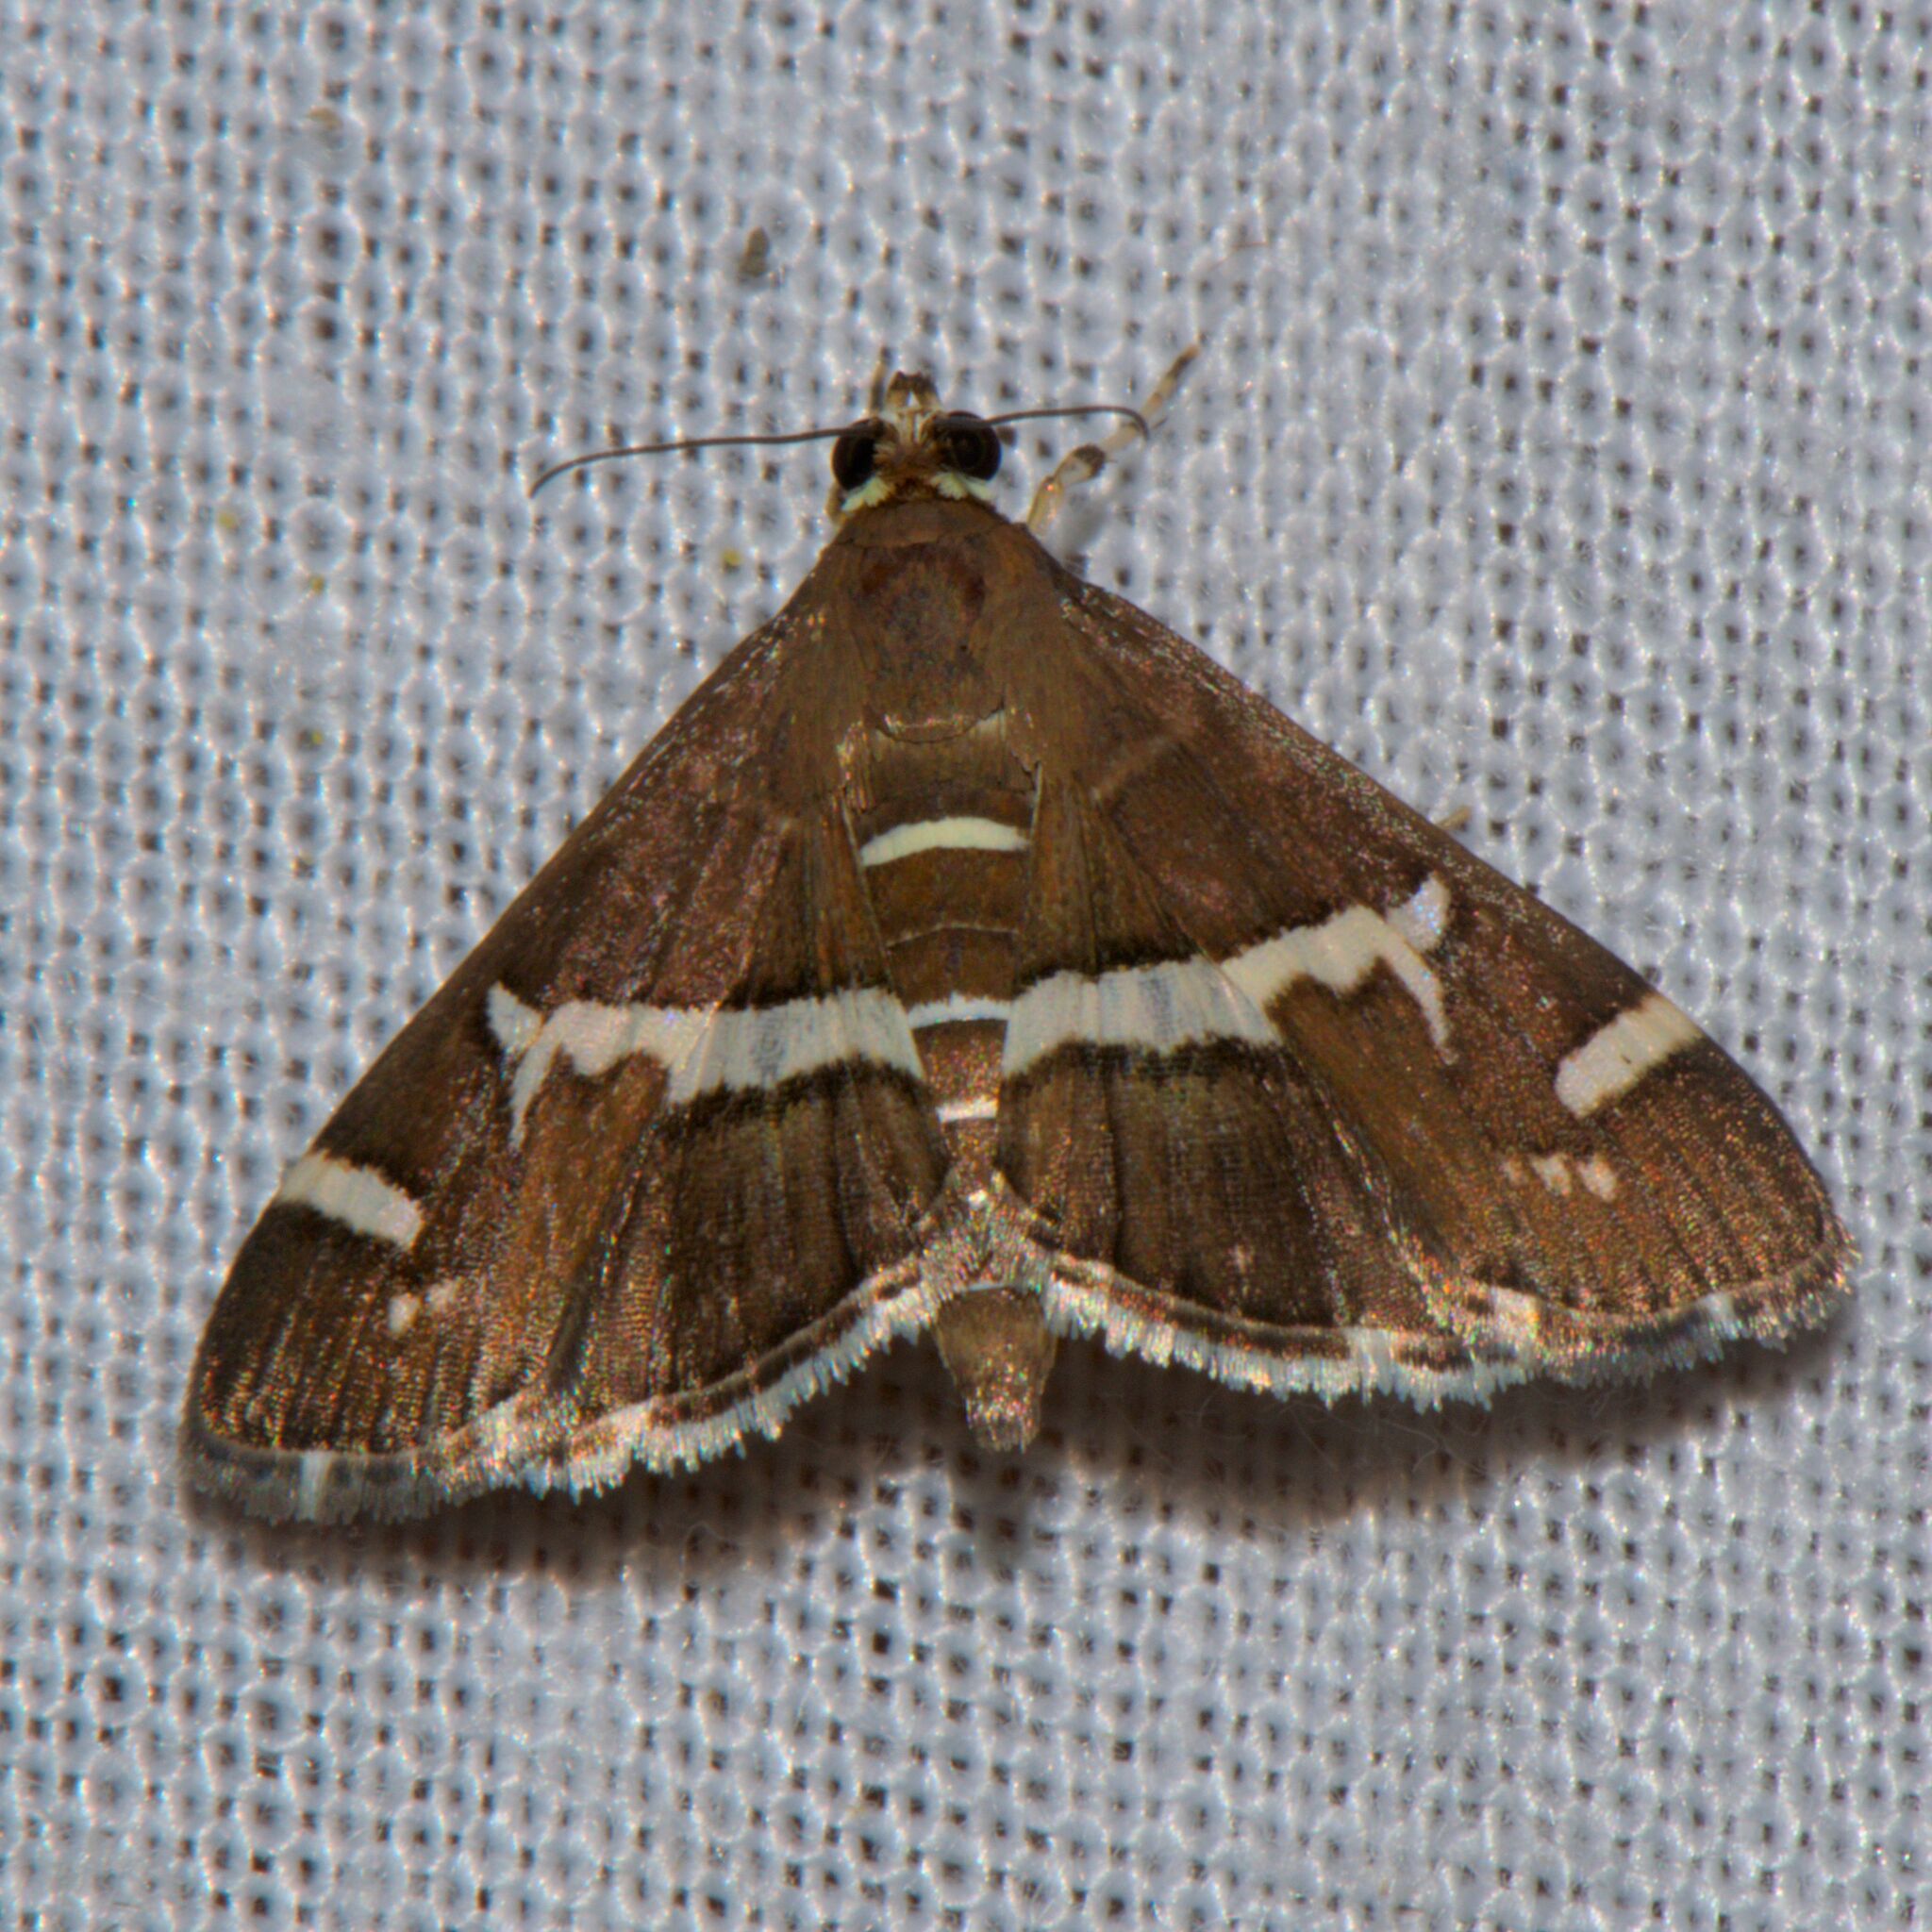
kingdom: Animalia
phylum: Arthropoda
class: Insecta
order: Lepidoptera
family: Crambidae
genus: Spoladea
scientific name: Spoladea recurvalis
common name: Beet webworm moth
